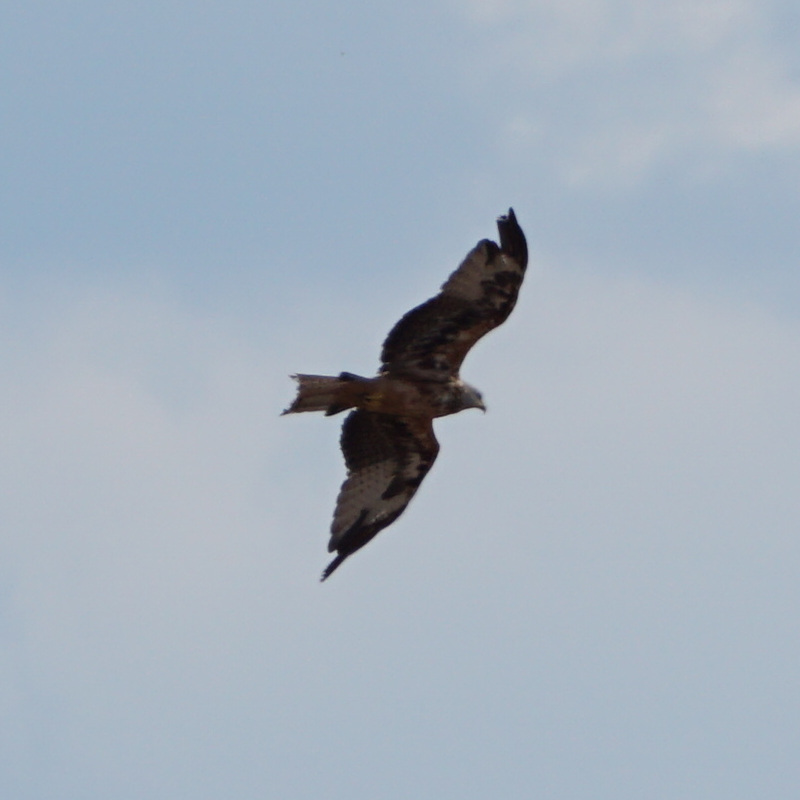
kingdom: Animalia
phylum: Chordata
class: Aves
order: Accipitriformes
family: Accipitridae
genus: Milvus
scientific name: Milvus milvus
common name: Red kite
